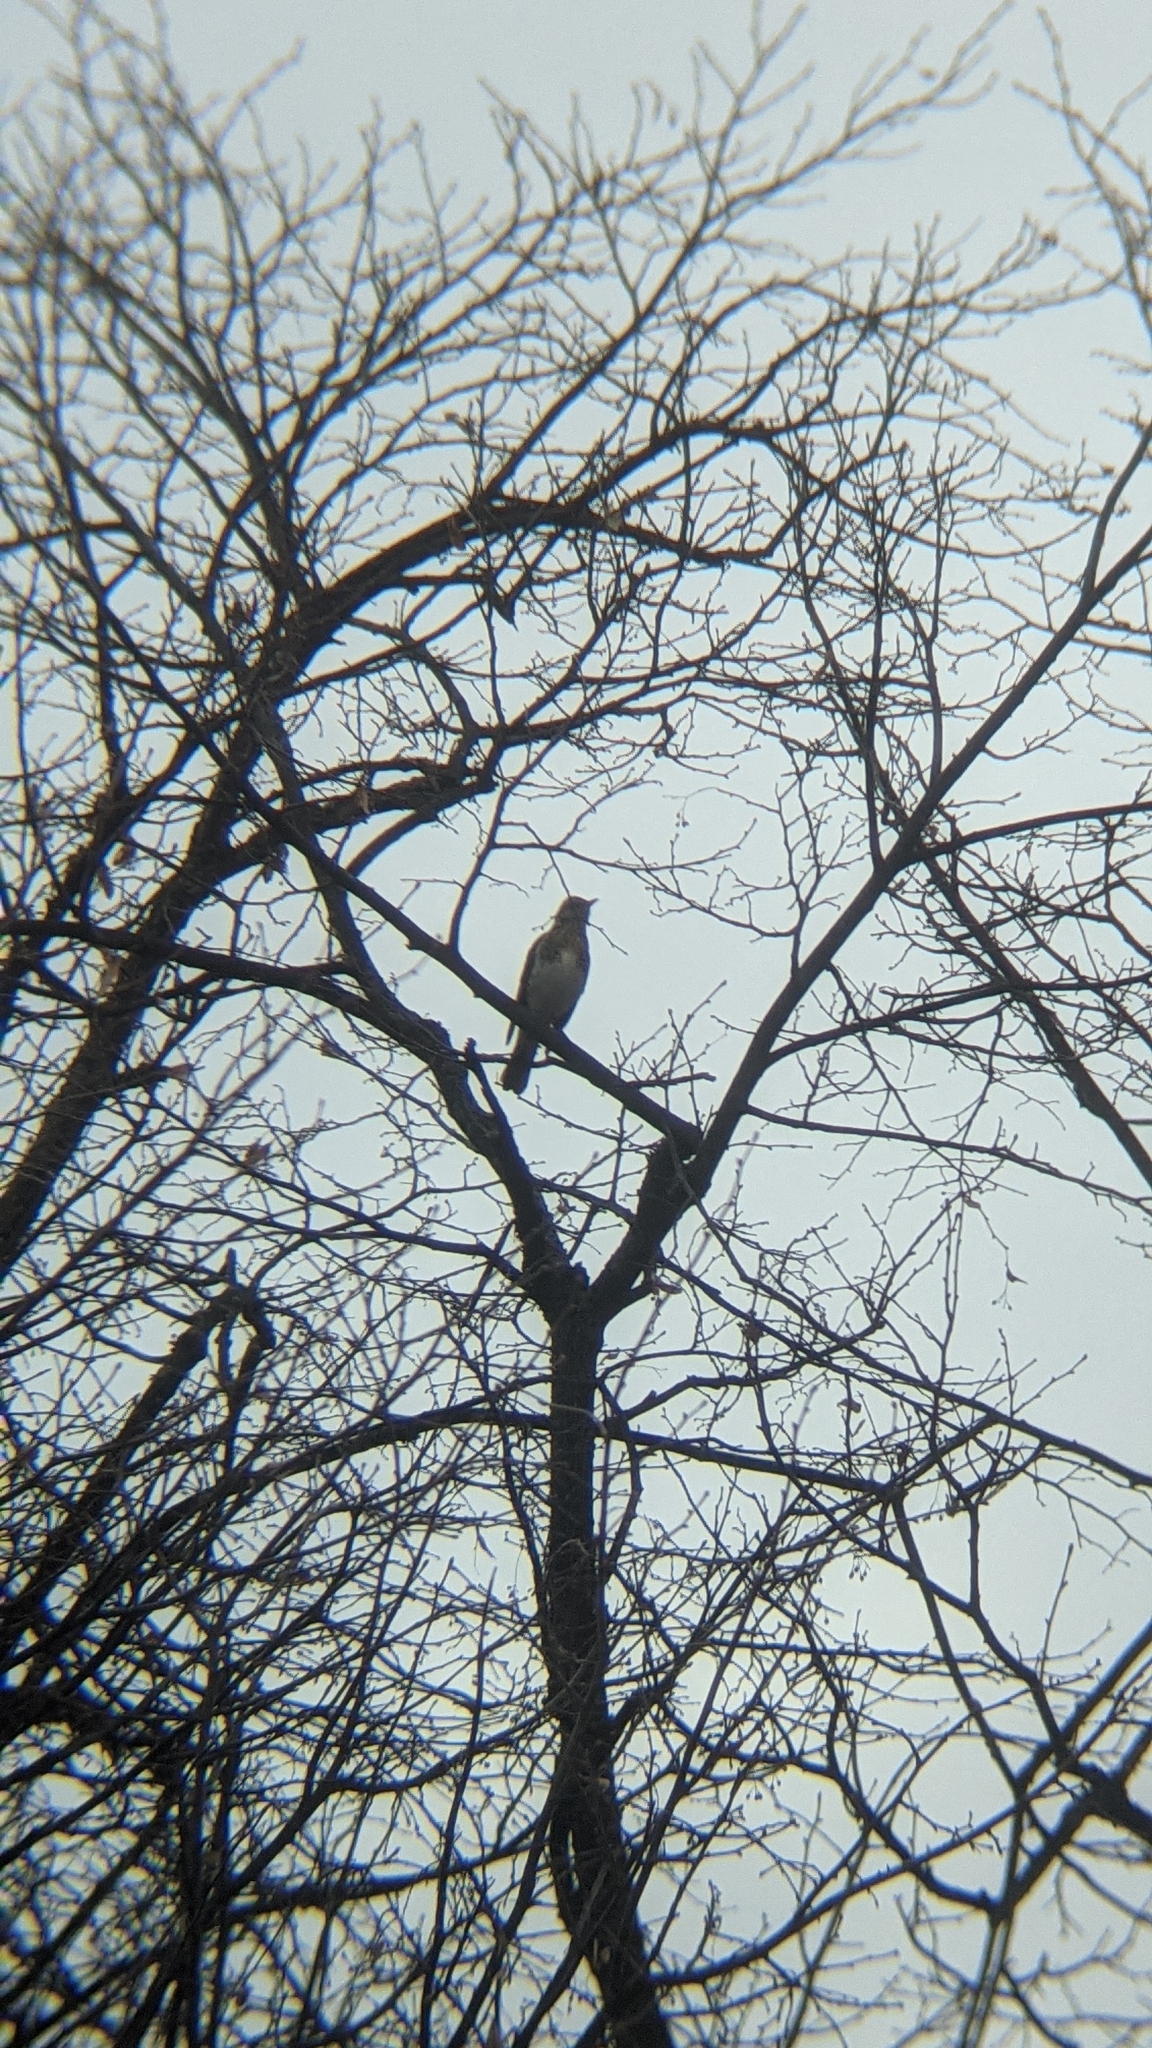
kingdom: Animalia
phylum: Chordata
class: Aves
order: Passeriformes
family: Turdidae
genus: Turdus
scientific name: Turdus pilaris
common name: Fieldfare
